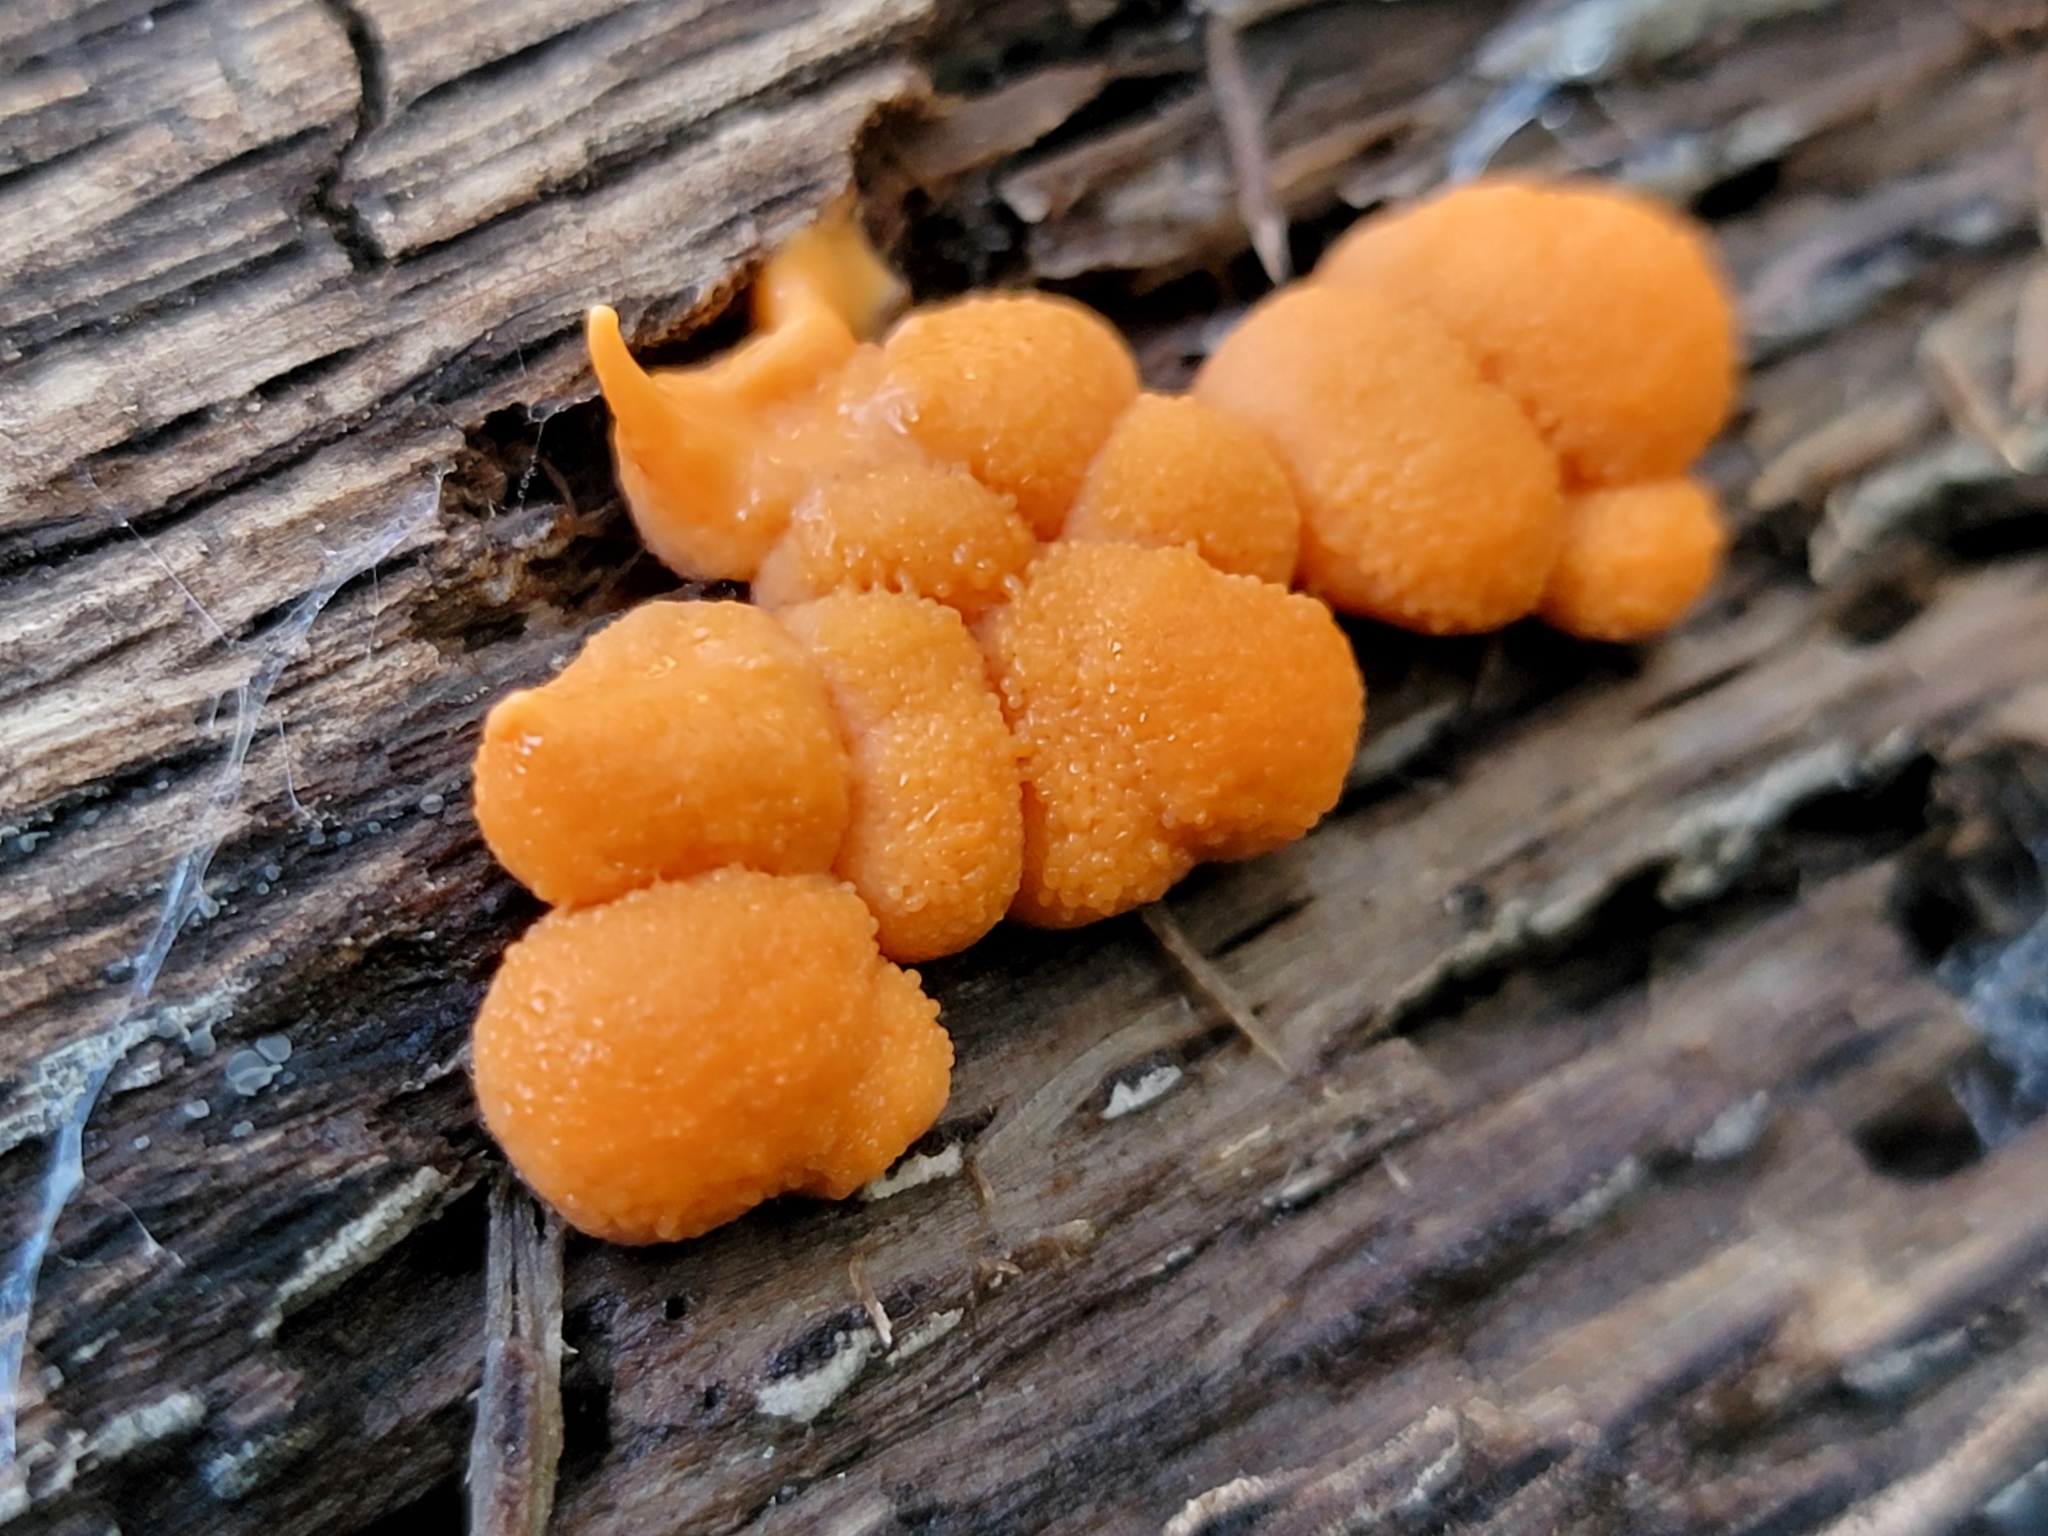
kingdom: Protozoa
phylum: Mycetozoa
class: Myxomycetes
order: Cribrariales
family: Tubiferaceae
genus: Lycogala
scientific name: Lycogala epidendrum
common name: Wolf's milk
